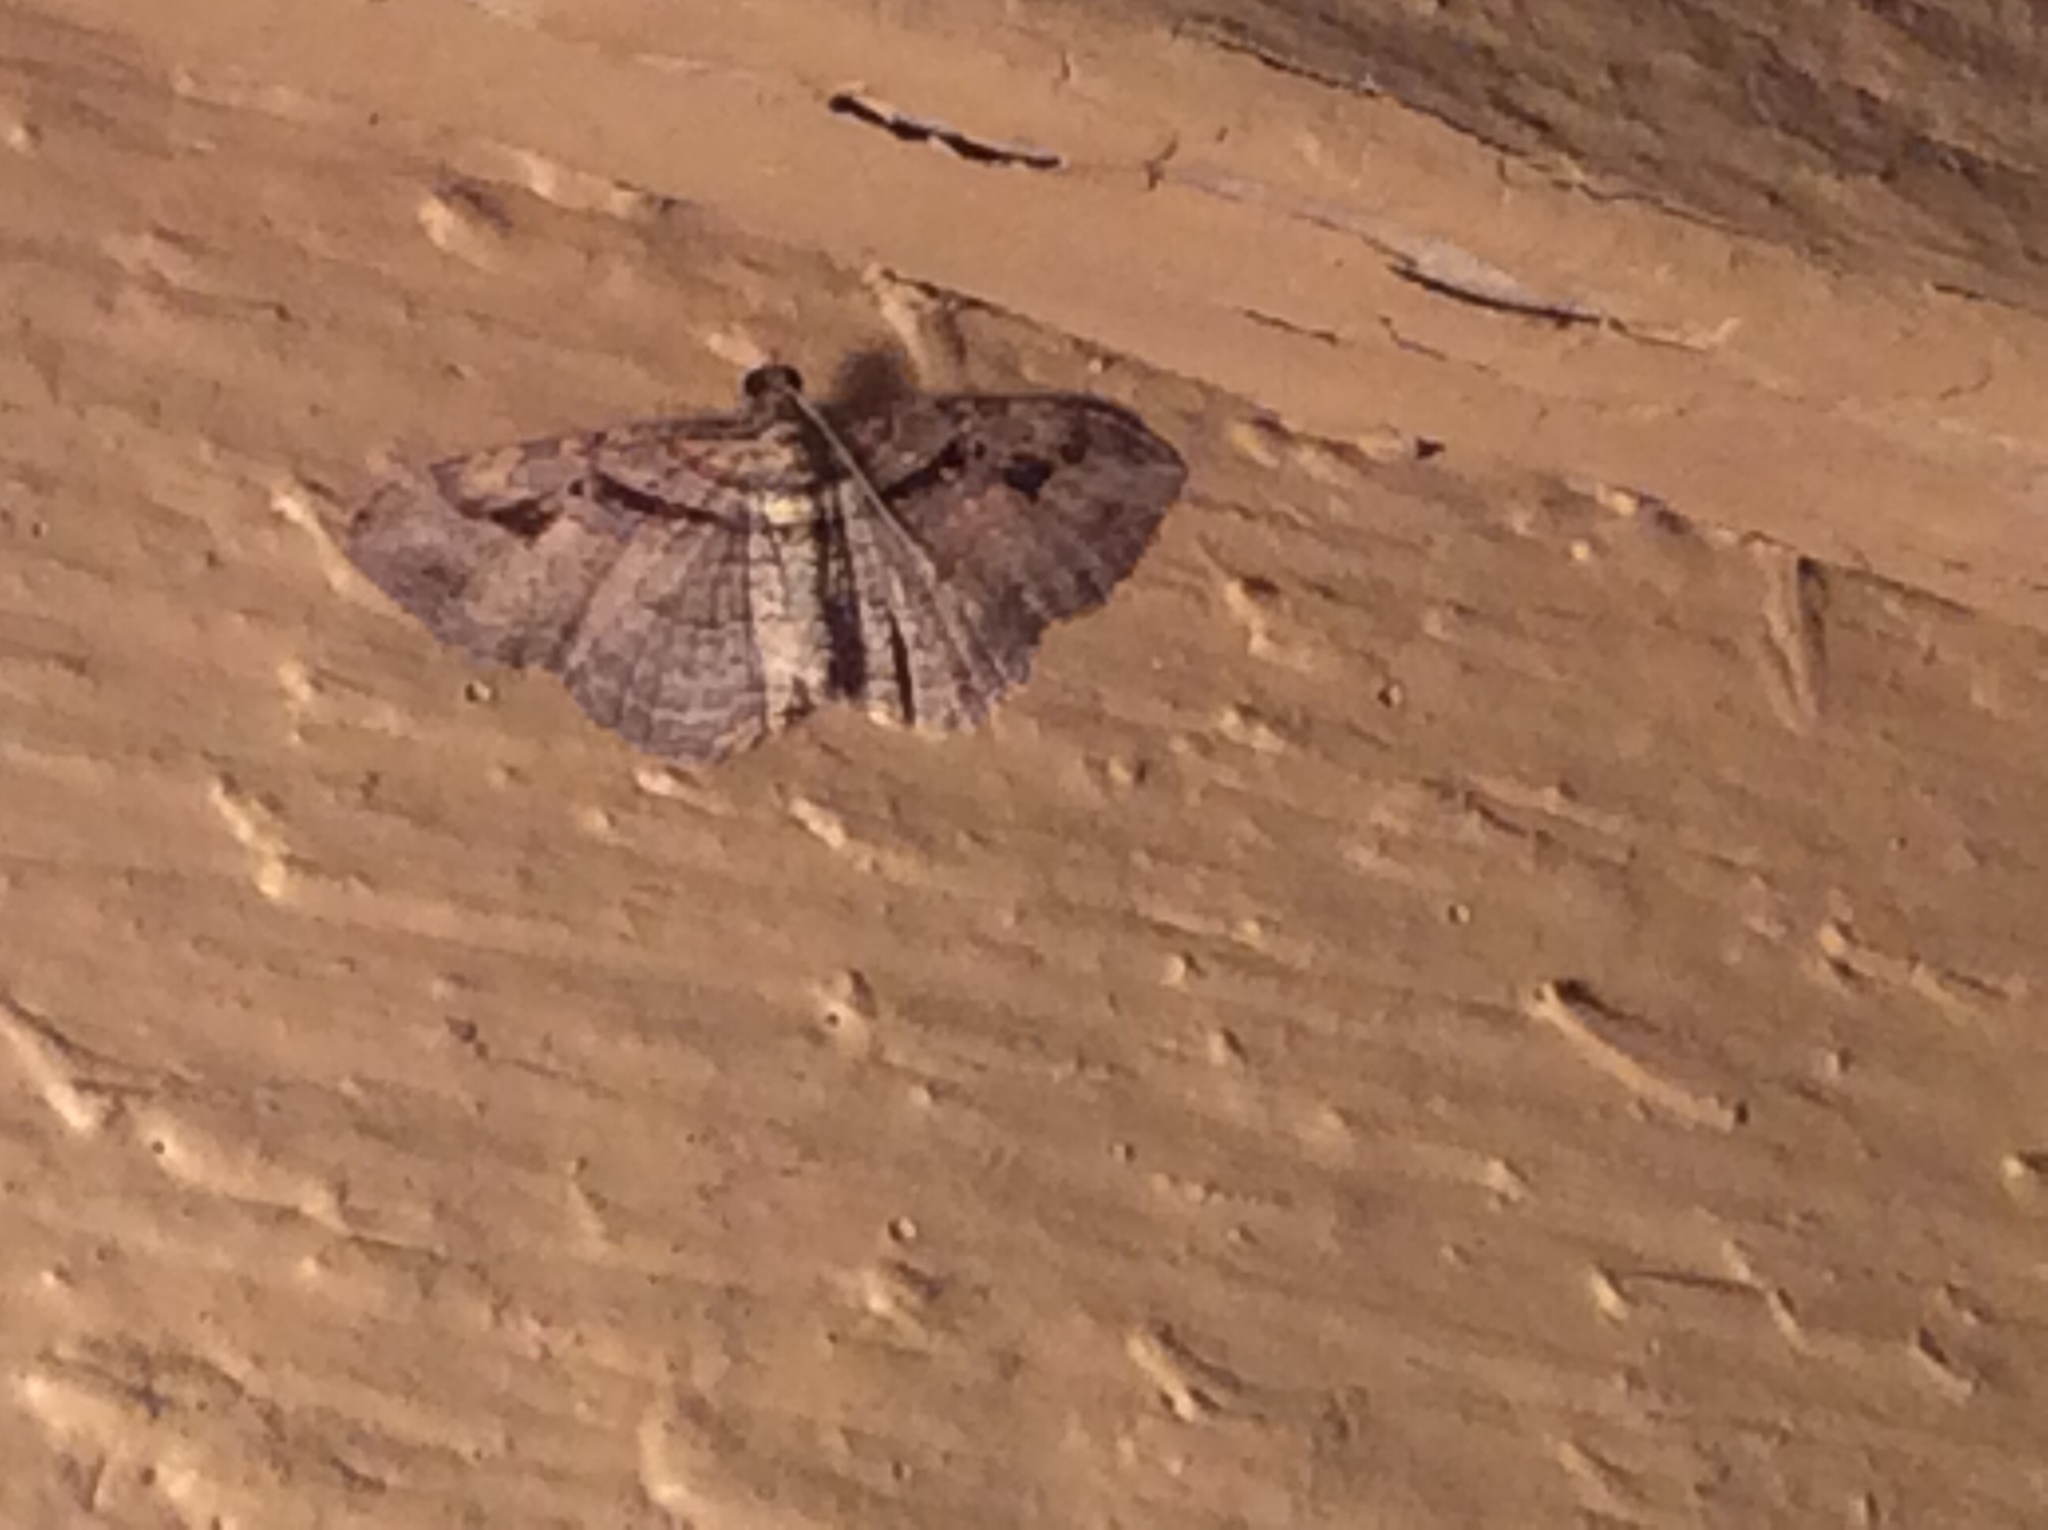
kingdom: Animalia
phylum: Arthropoda
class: Insecta
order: Lepidoptera
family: Geometridae
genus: Costaconvexa
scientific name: Costaconvexa centrostrigaria
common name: Bent-line carpet
